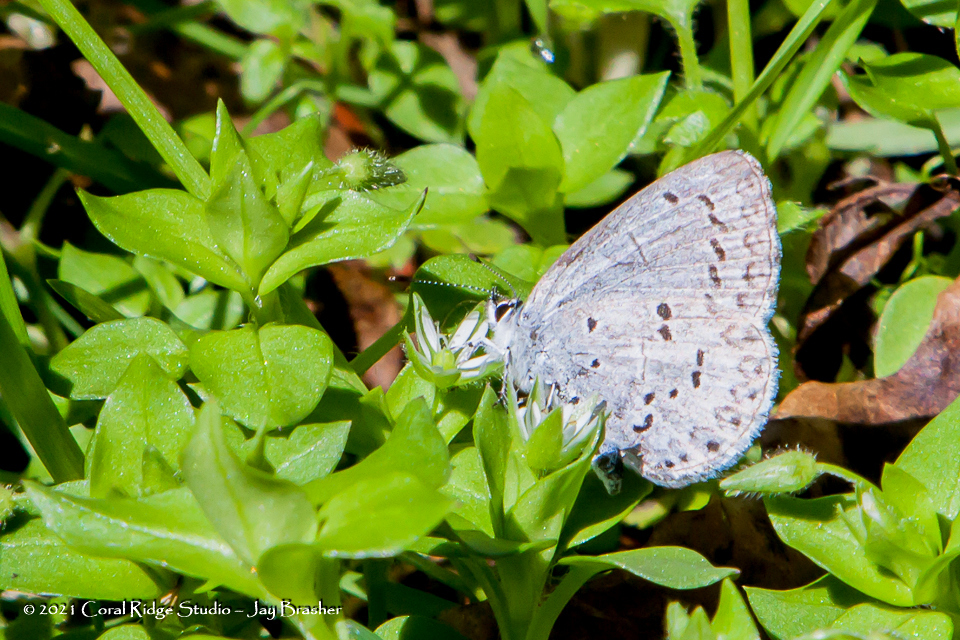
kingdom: Animalia
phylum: Arthropoda
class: Insecta
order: Lepidoptera
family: Lycaenidae
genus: Celastrina
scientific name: Celastrina ladon
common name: Spring azure
